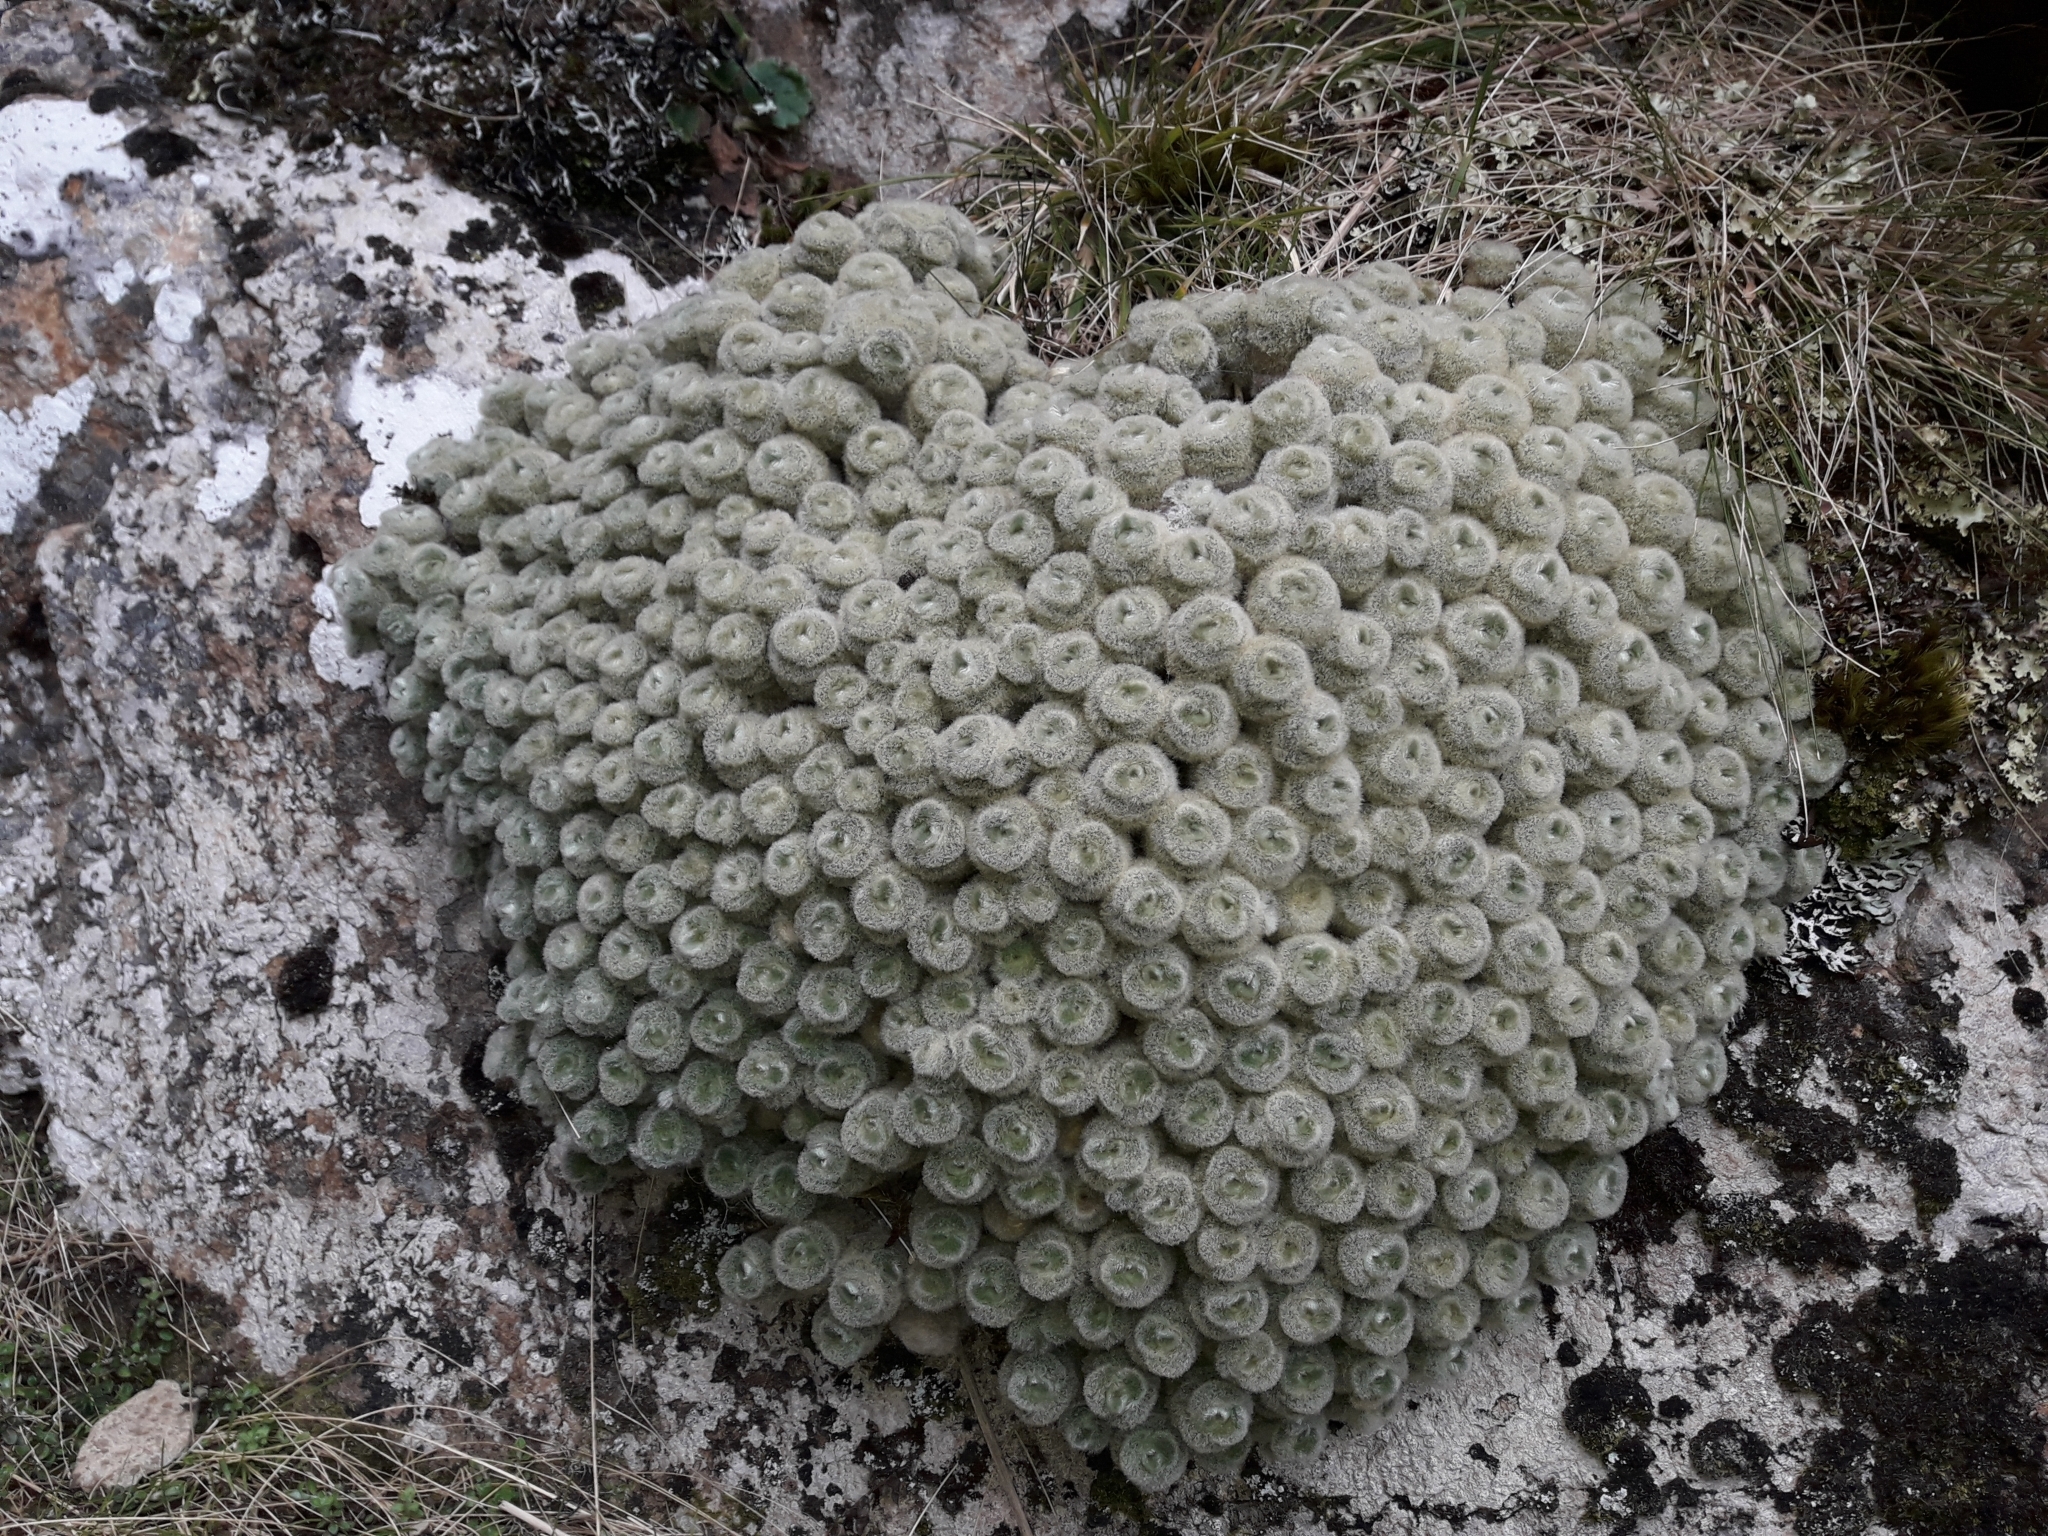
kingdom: Plantae
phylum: Tracheophyta
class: Magnoliopsida
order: Asterales
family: Asteraceae
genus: Haastia
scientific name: Haastia pulvinaris
